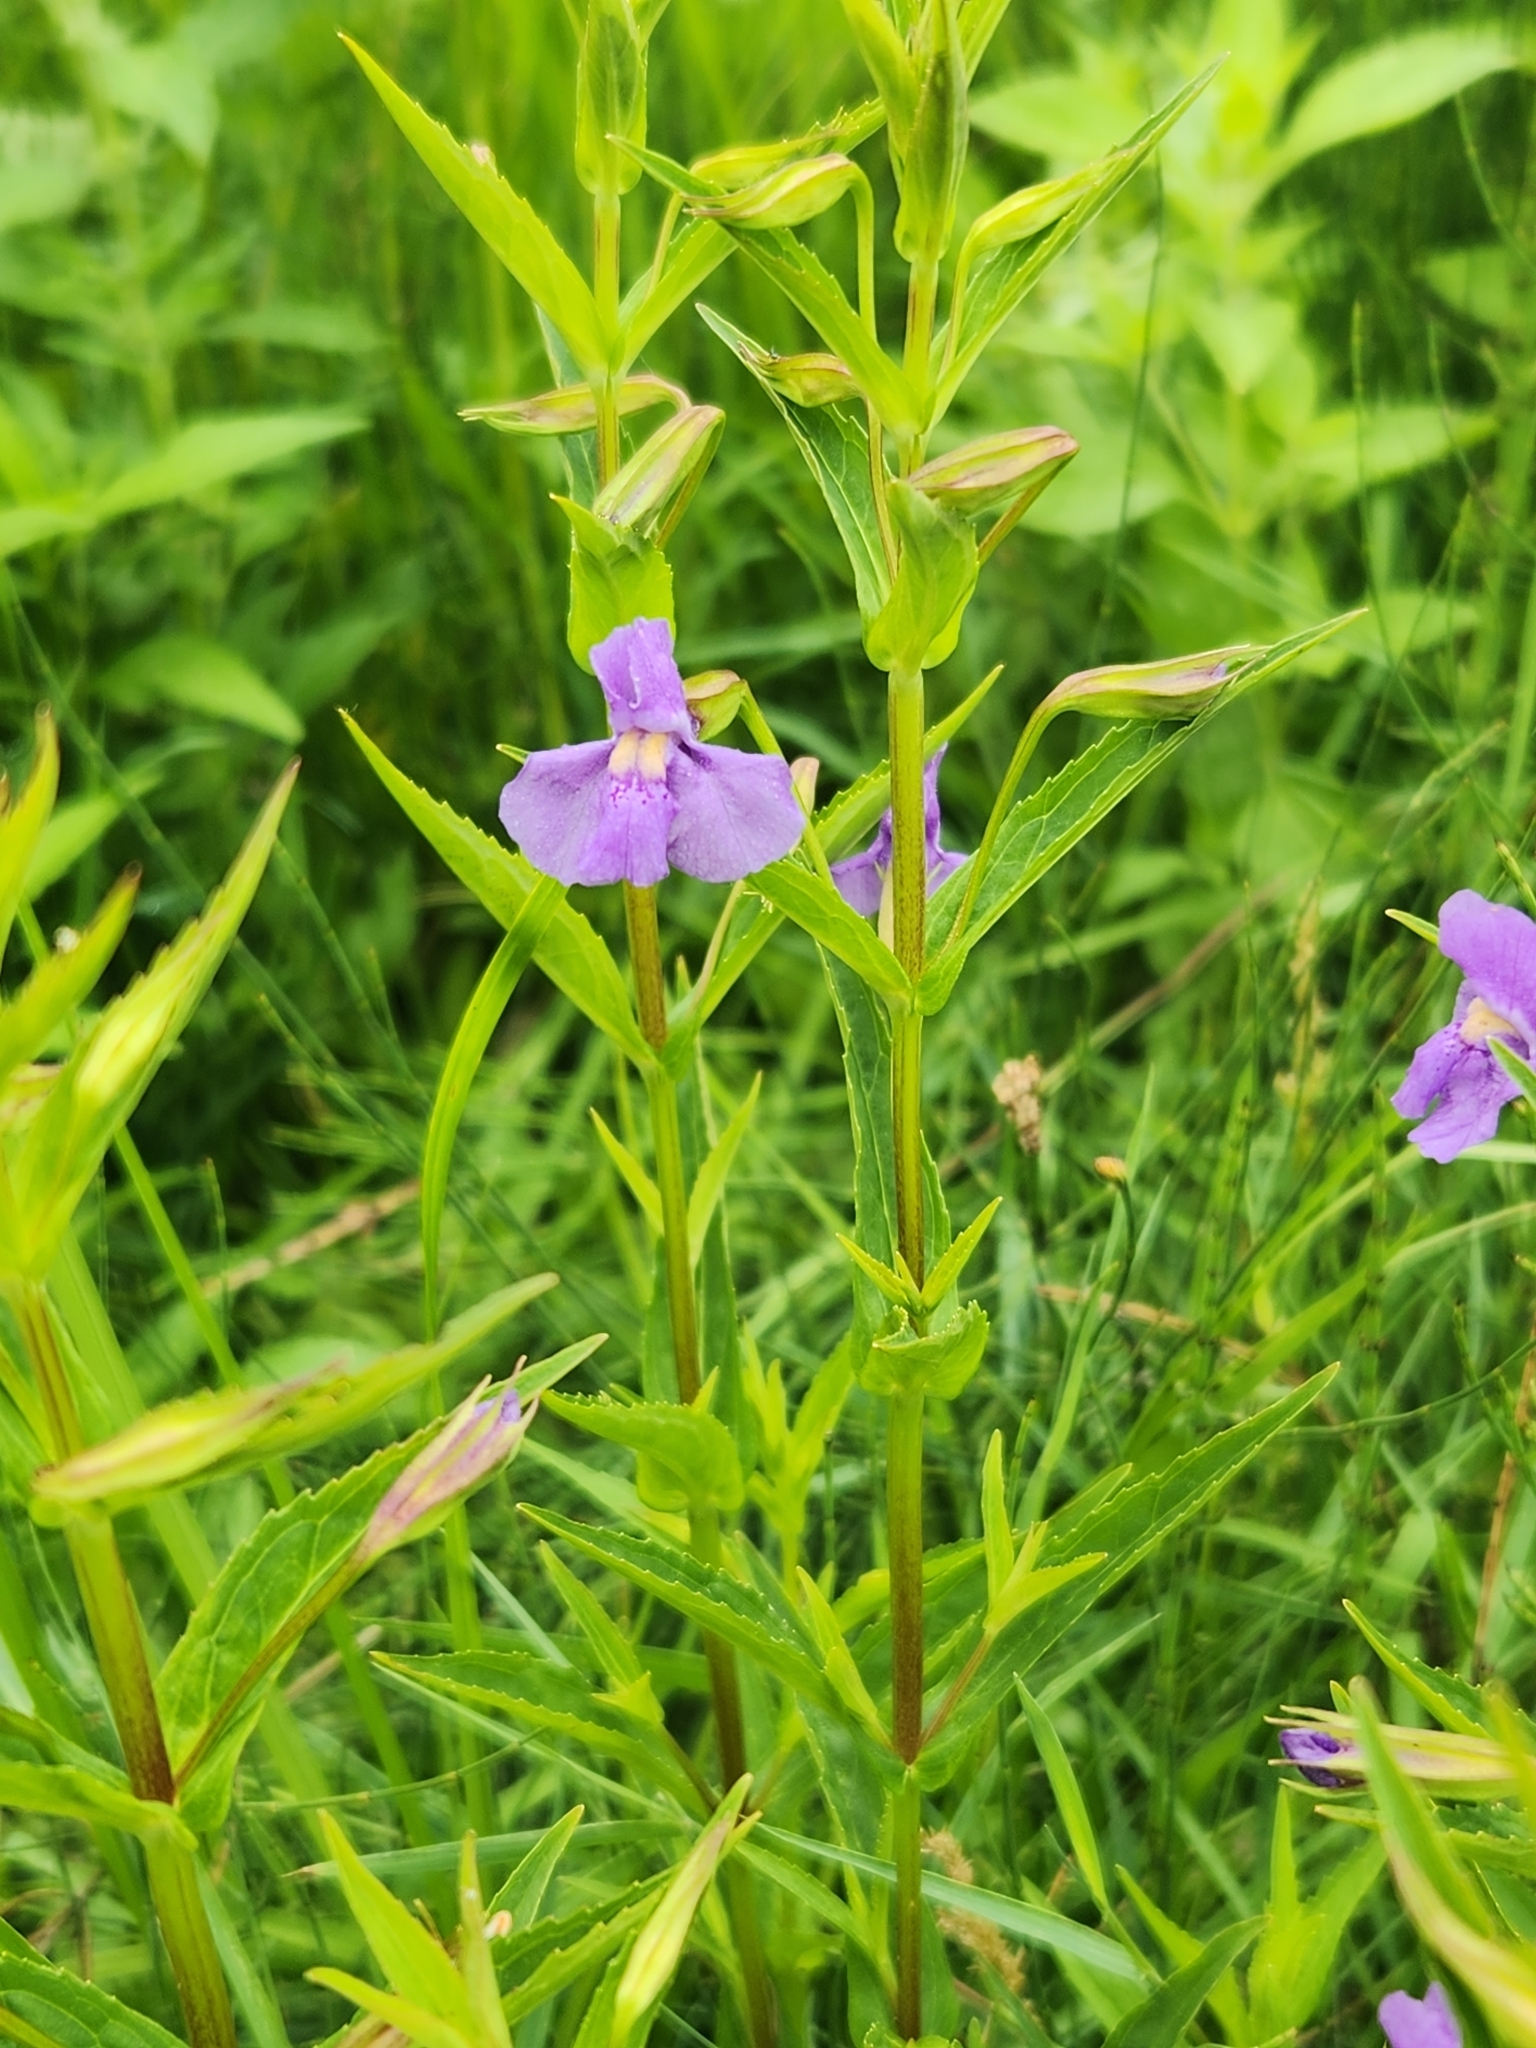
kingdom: Plantae
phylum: Tracheophyta
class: Magnoliopsida
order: Lamiales
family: Phrymaceae
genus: Mimulus
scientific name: Mimulus ringens
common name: Allegheny monkeyflower
